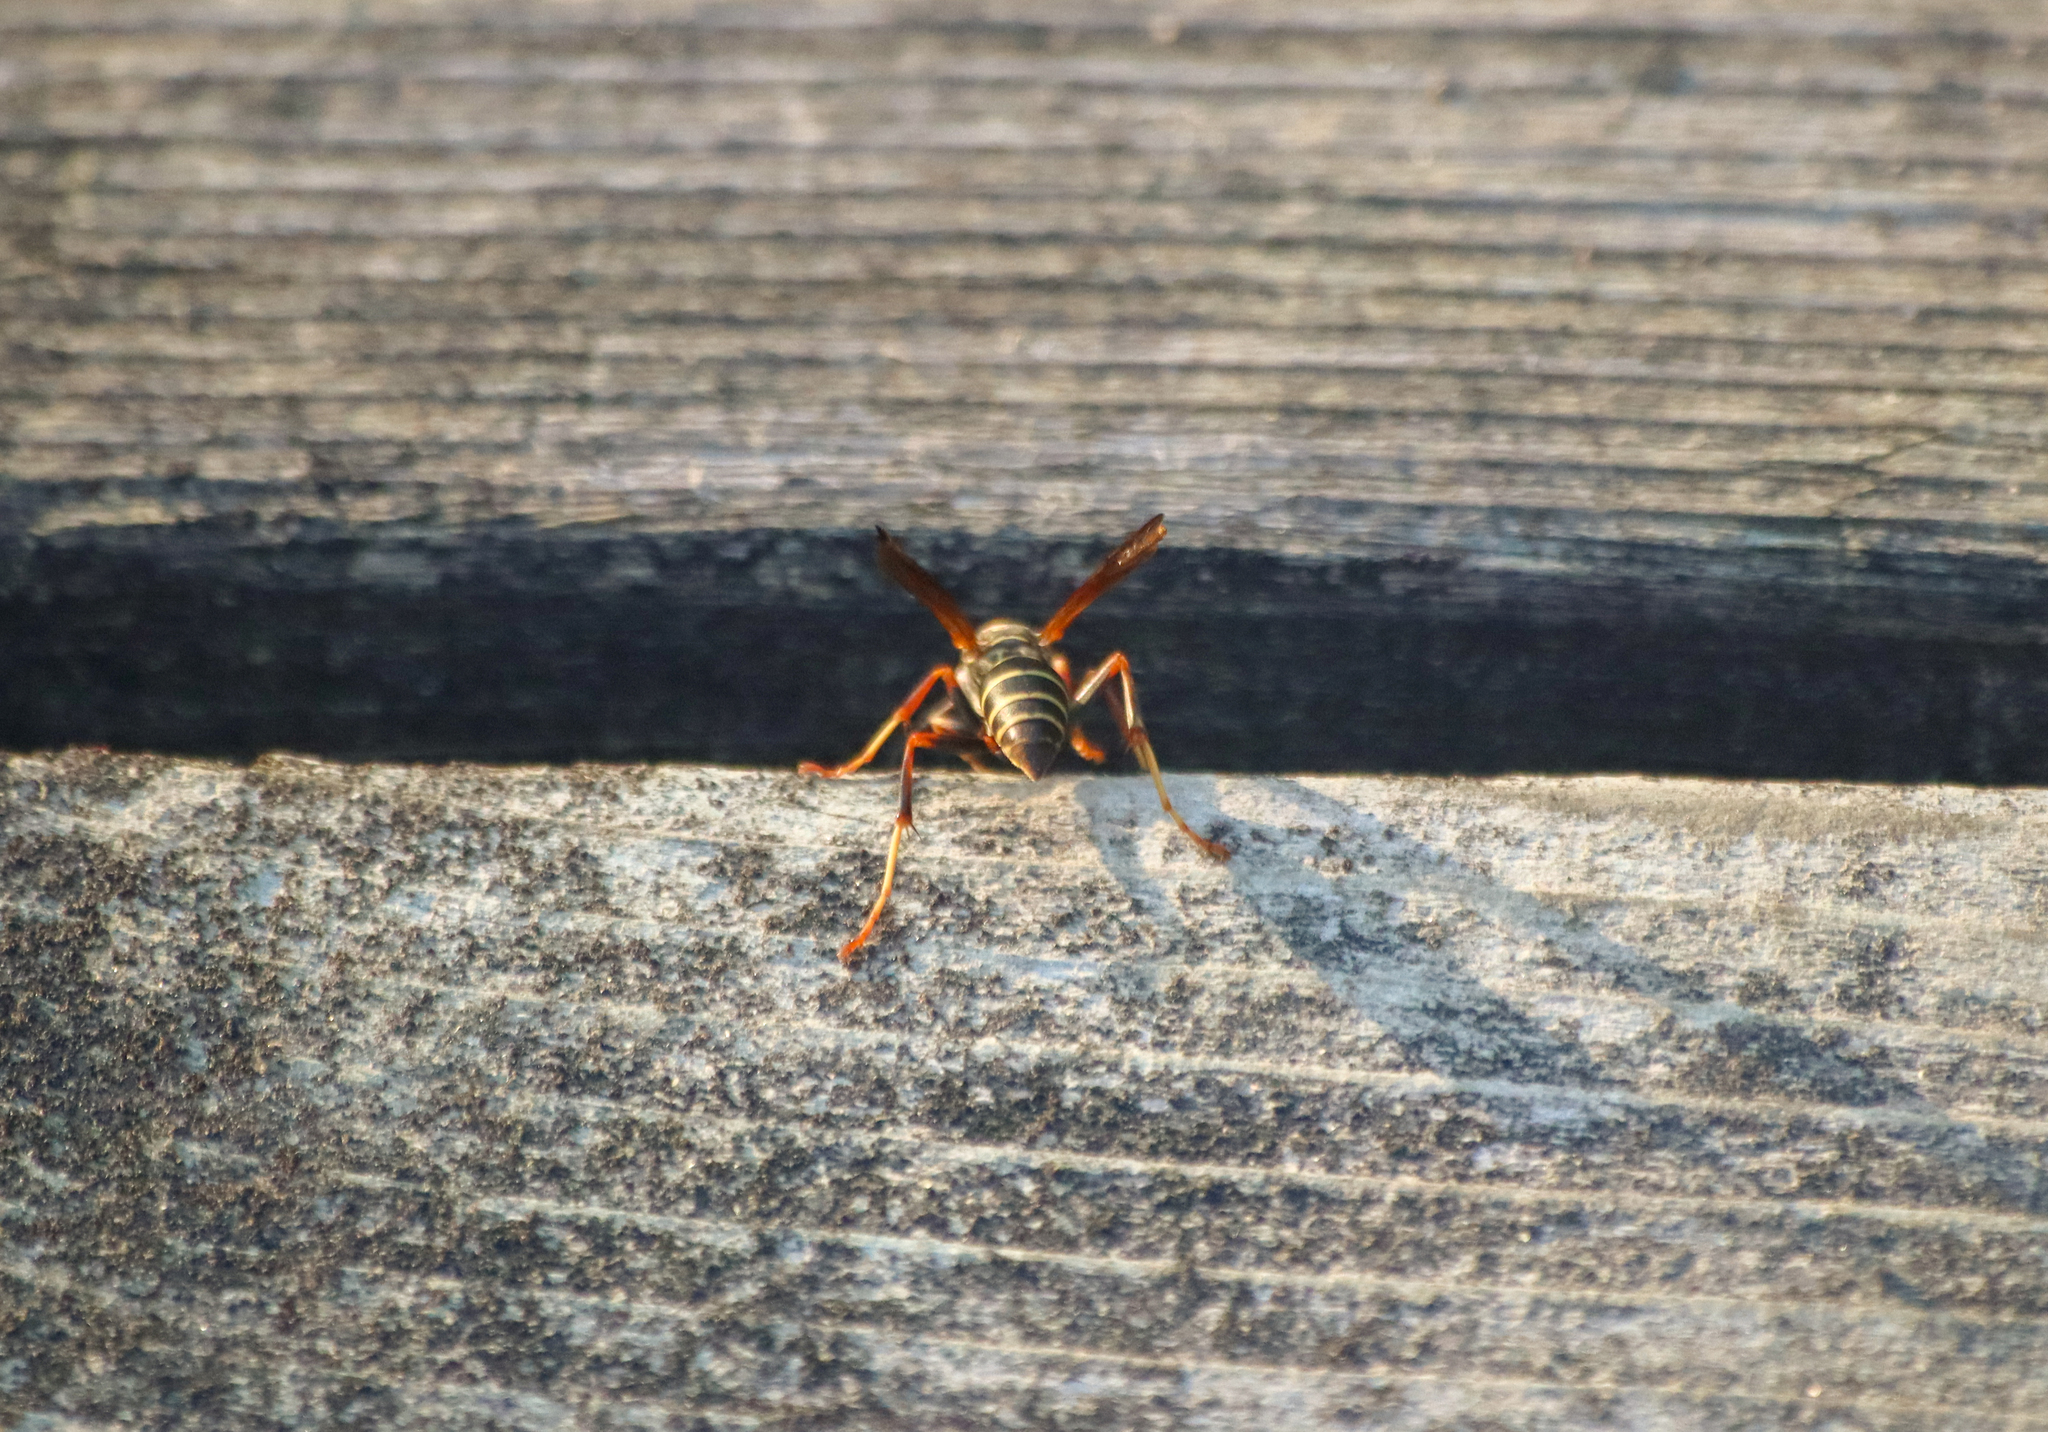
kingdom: Animalia
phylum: Arthropoda
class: Insecta
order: Hymenoptera
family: Eumenidae
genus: Polistes
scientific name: Polistes fuscatus
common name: Dark paper wasp
